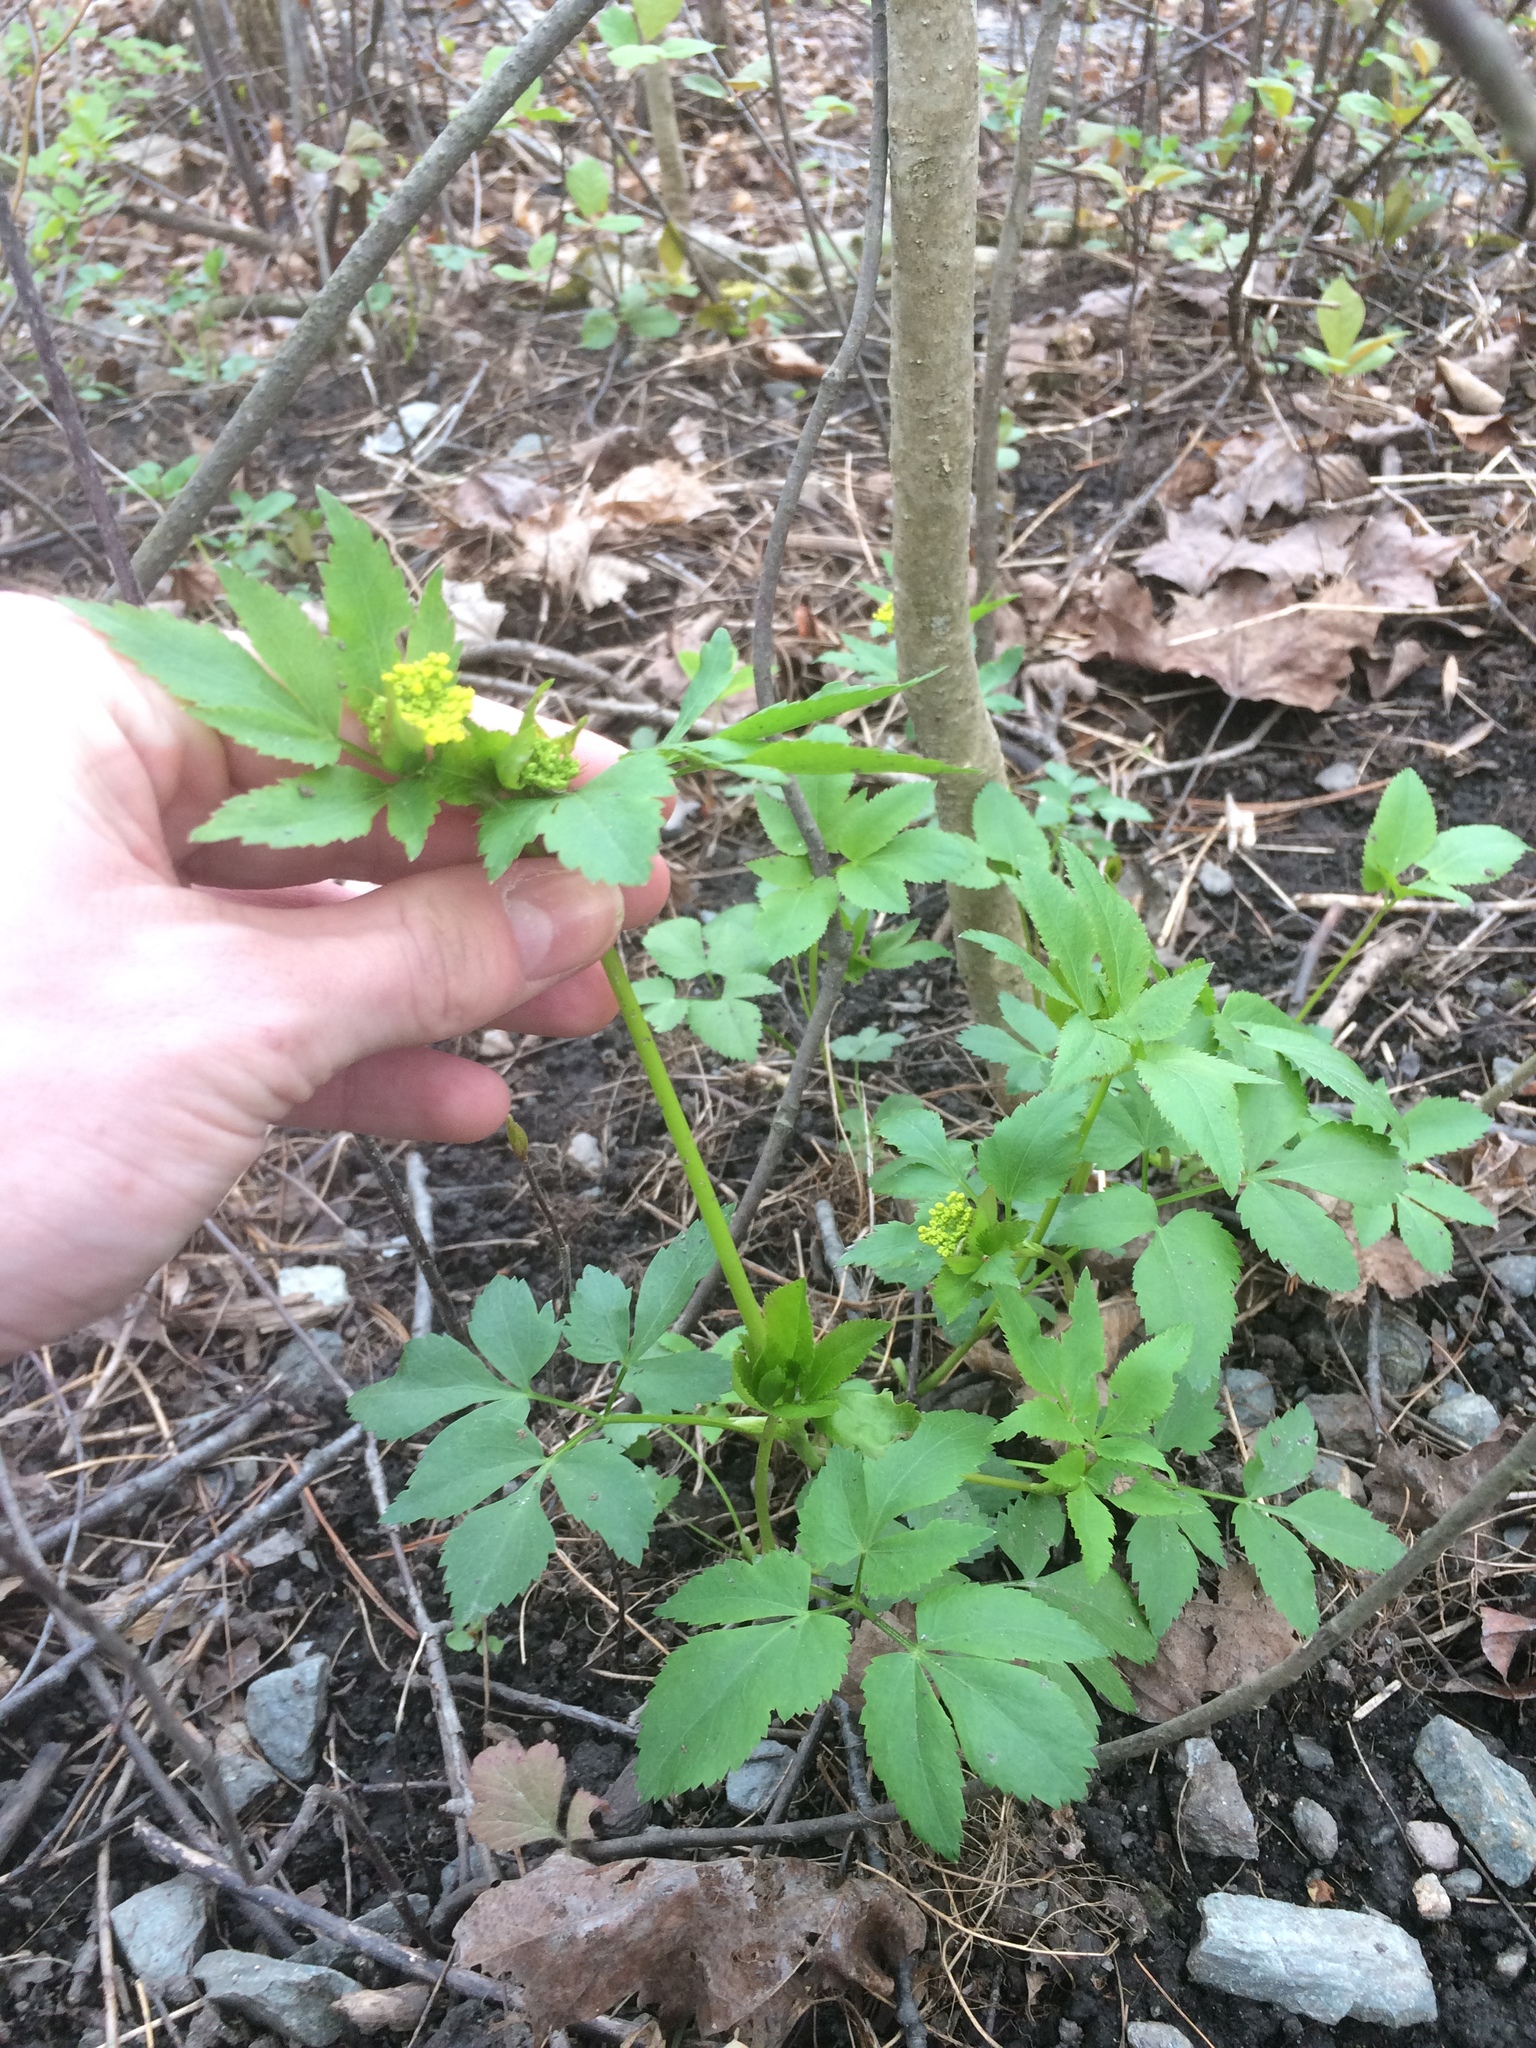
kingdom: Plantae
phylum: Tracheophyta
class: Magnoliopsida
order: Apiales
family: Apiaceae
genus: Zizia
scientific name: Zizia aurea
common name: Golden alexanders
